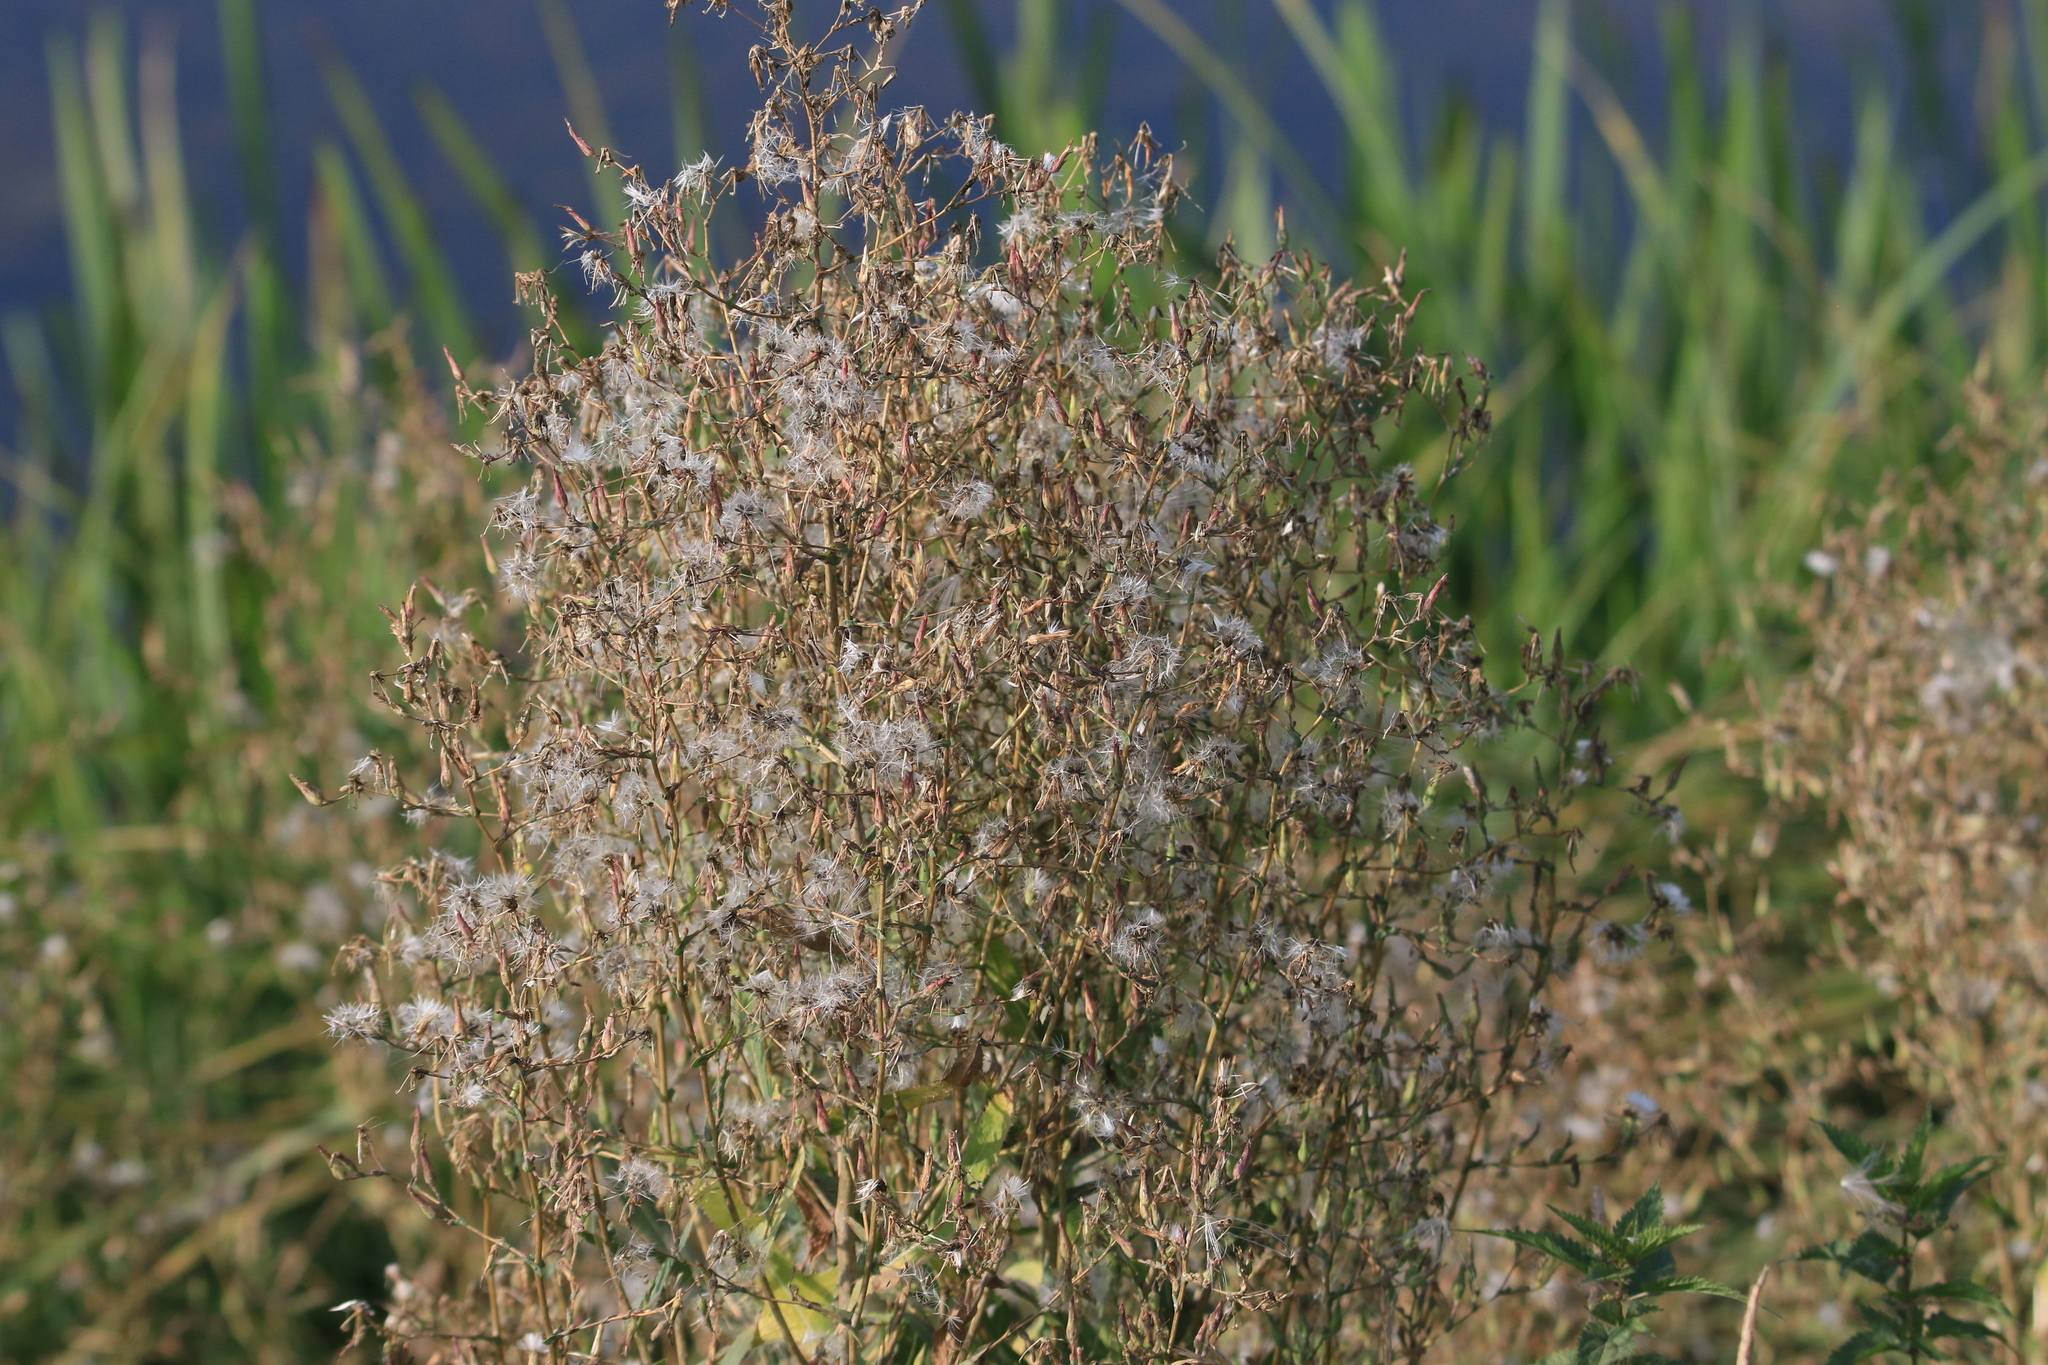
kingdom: Plantae
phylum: Tracheophyta
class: Magnoliopsida
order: Asterales
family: Asteraceae
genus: Lactuca
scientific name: Lactuca tatarica
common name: Blue lettuce
